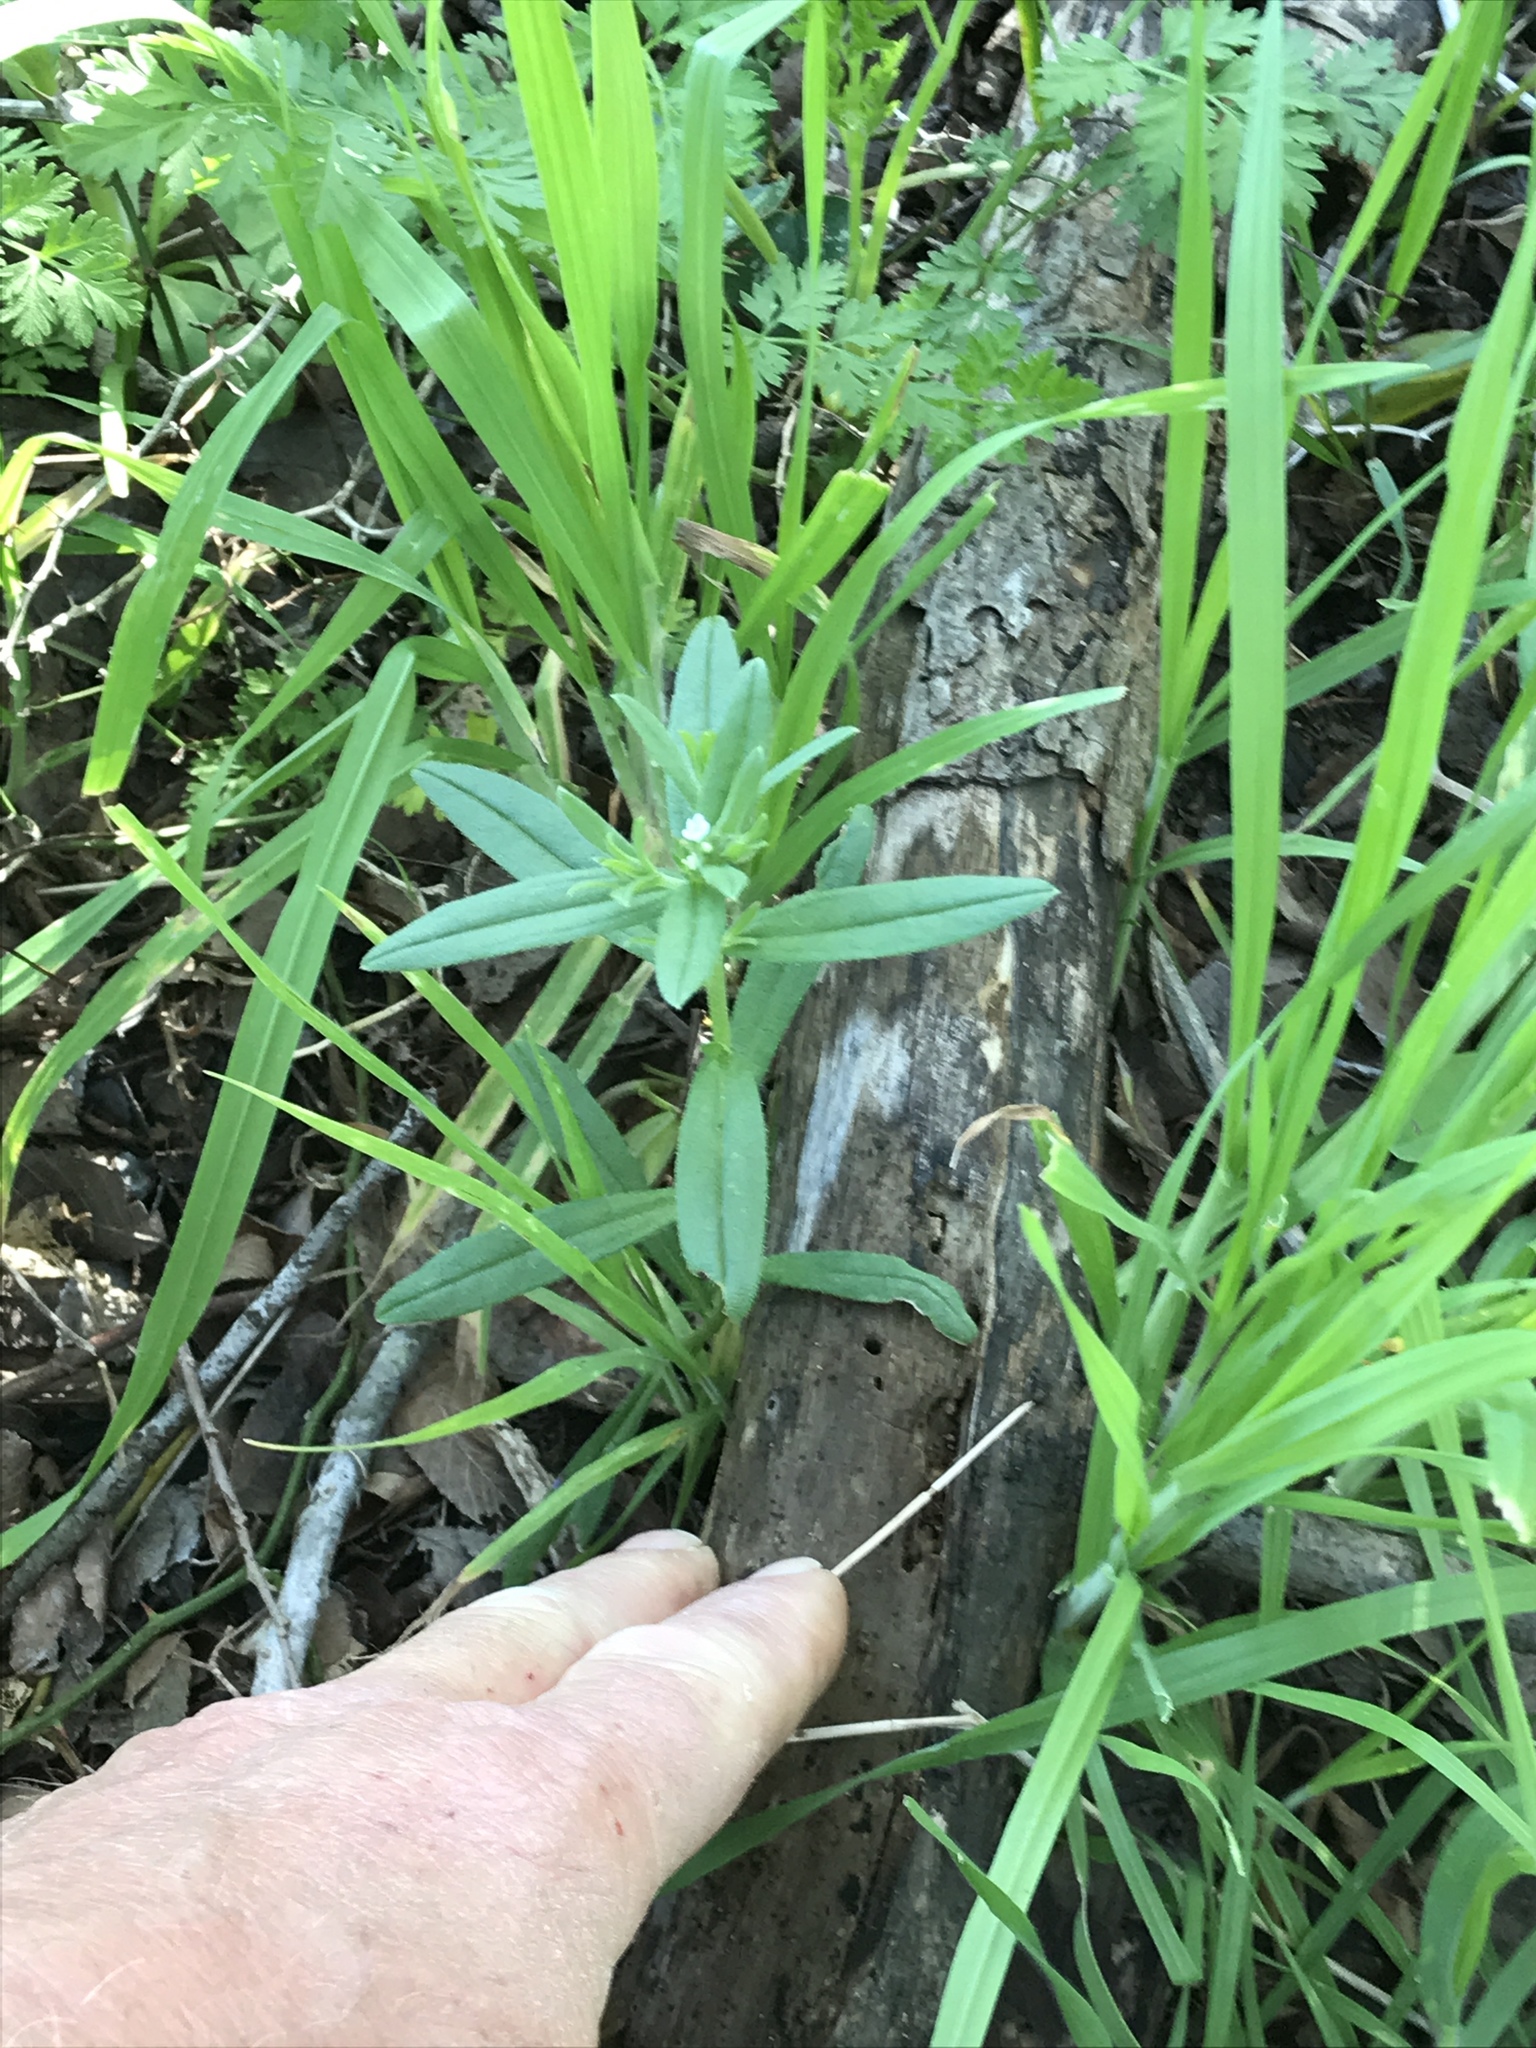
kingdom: Plantae
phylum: Tracheophyta
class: Magnoliopsida
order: Boraginales
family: Boraginaceae
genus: Buglossoides
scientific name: Buglossoides arvensis
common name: Corn gromwell
